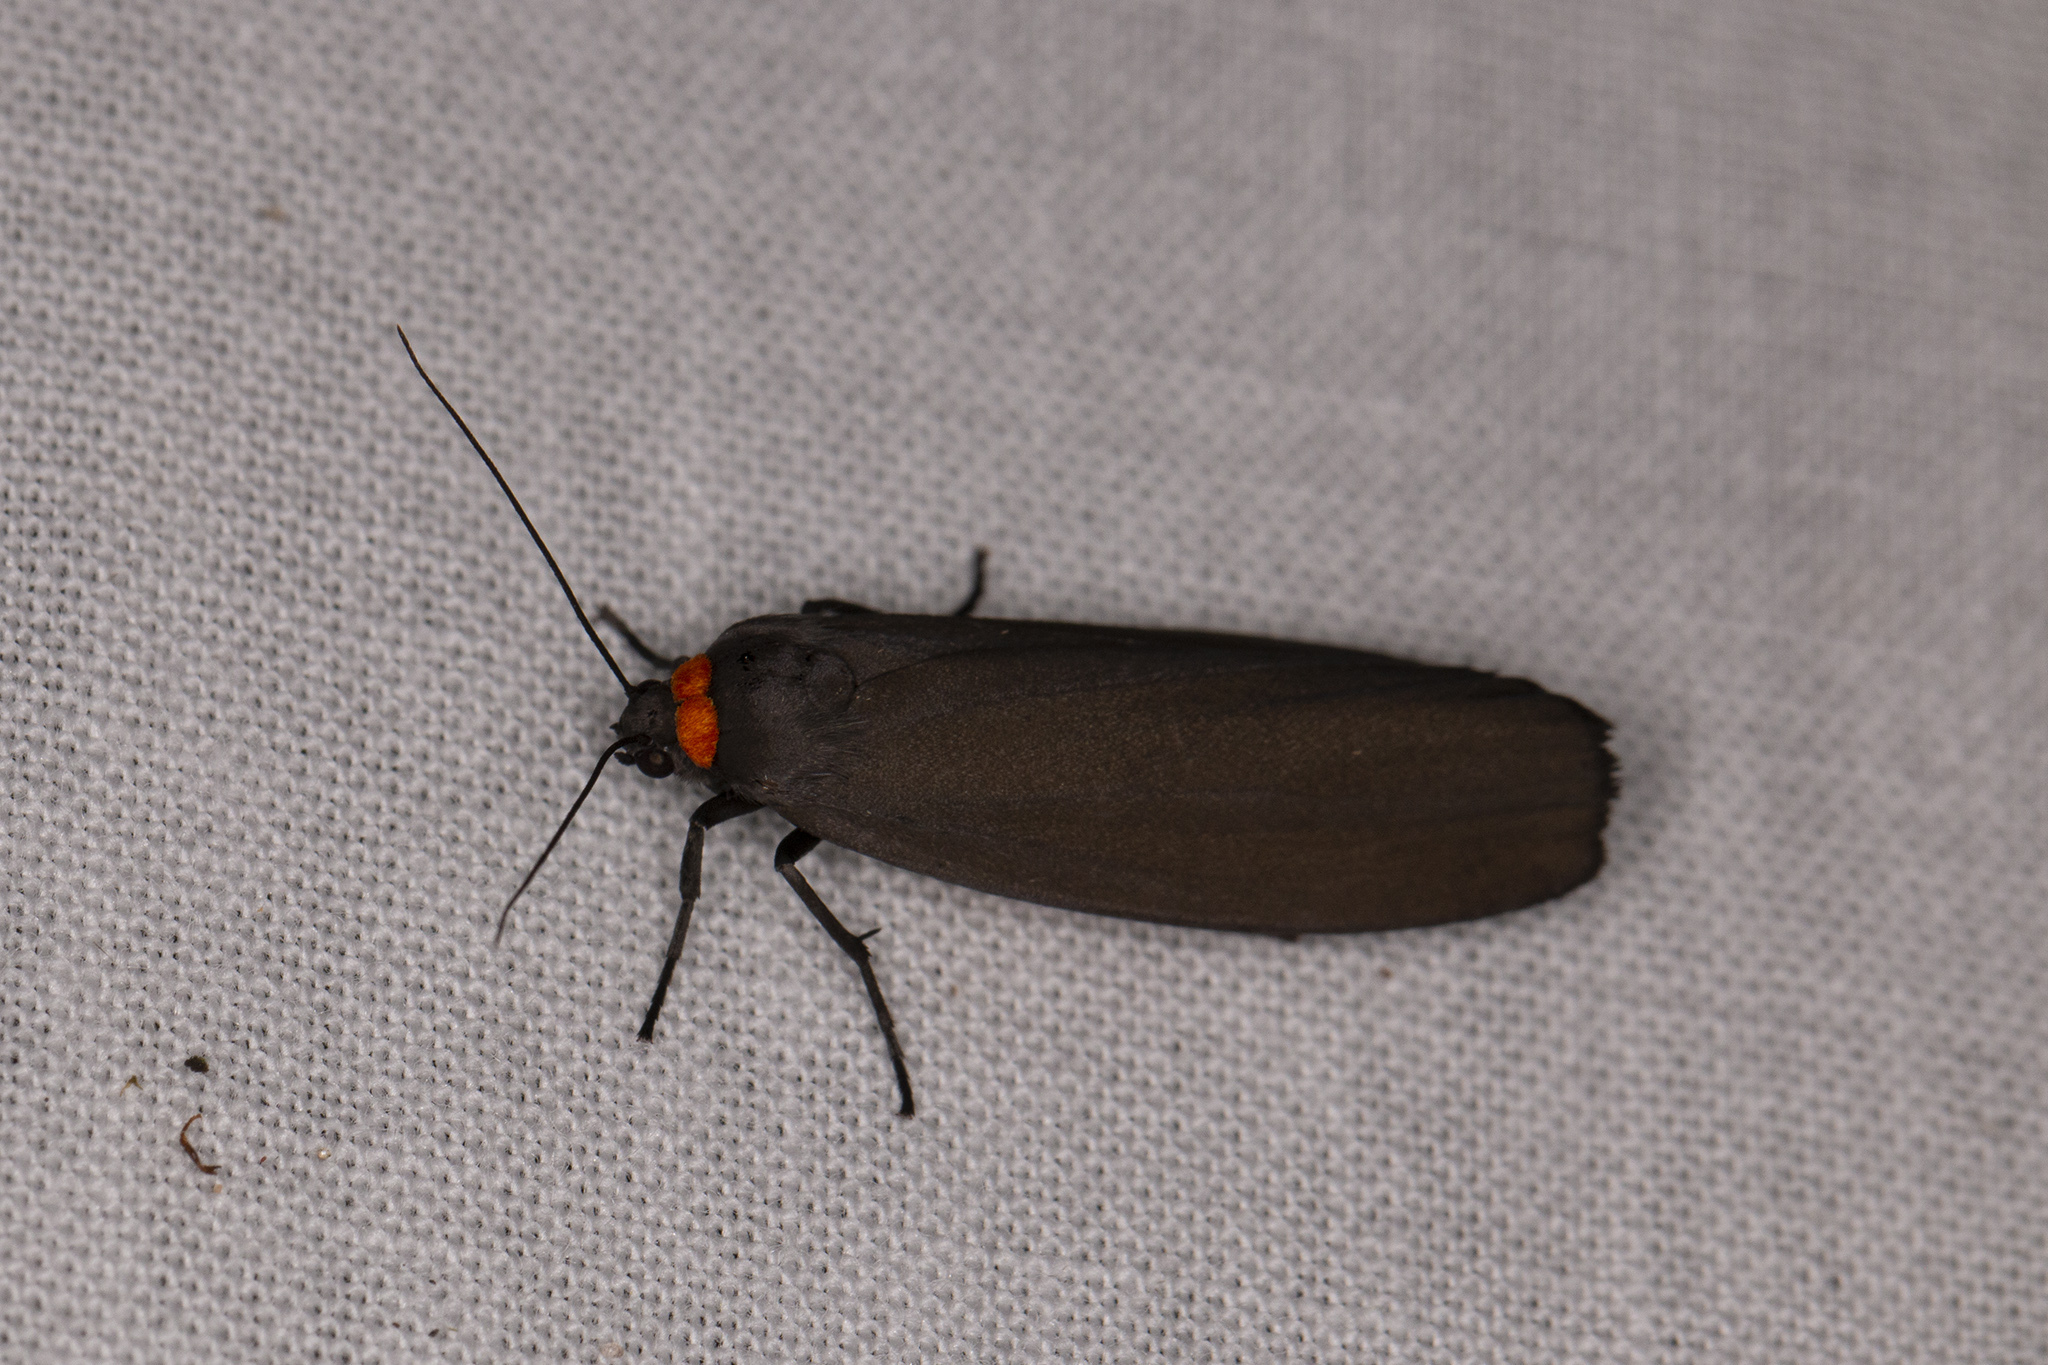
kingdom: Animalia
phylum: Arthropoda
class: Insecta
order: Lepidoptera
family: Erebidae
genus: Atolmis
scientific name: Atolmis rubricollis
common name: Red-necked footman
